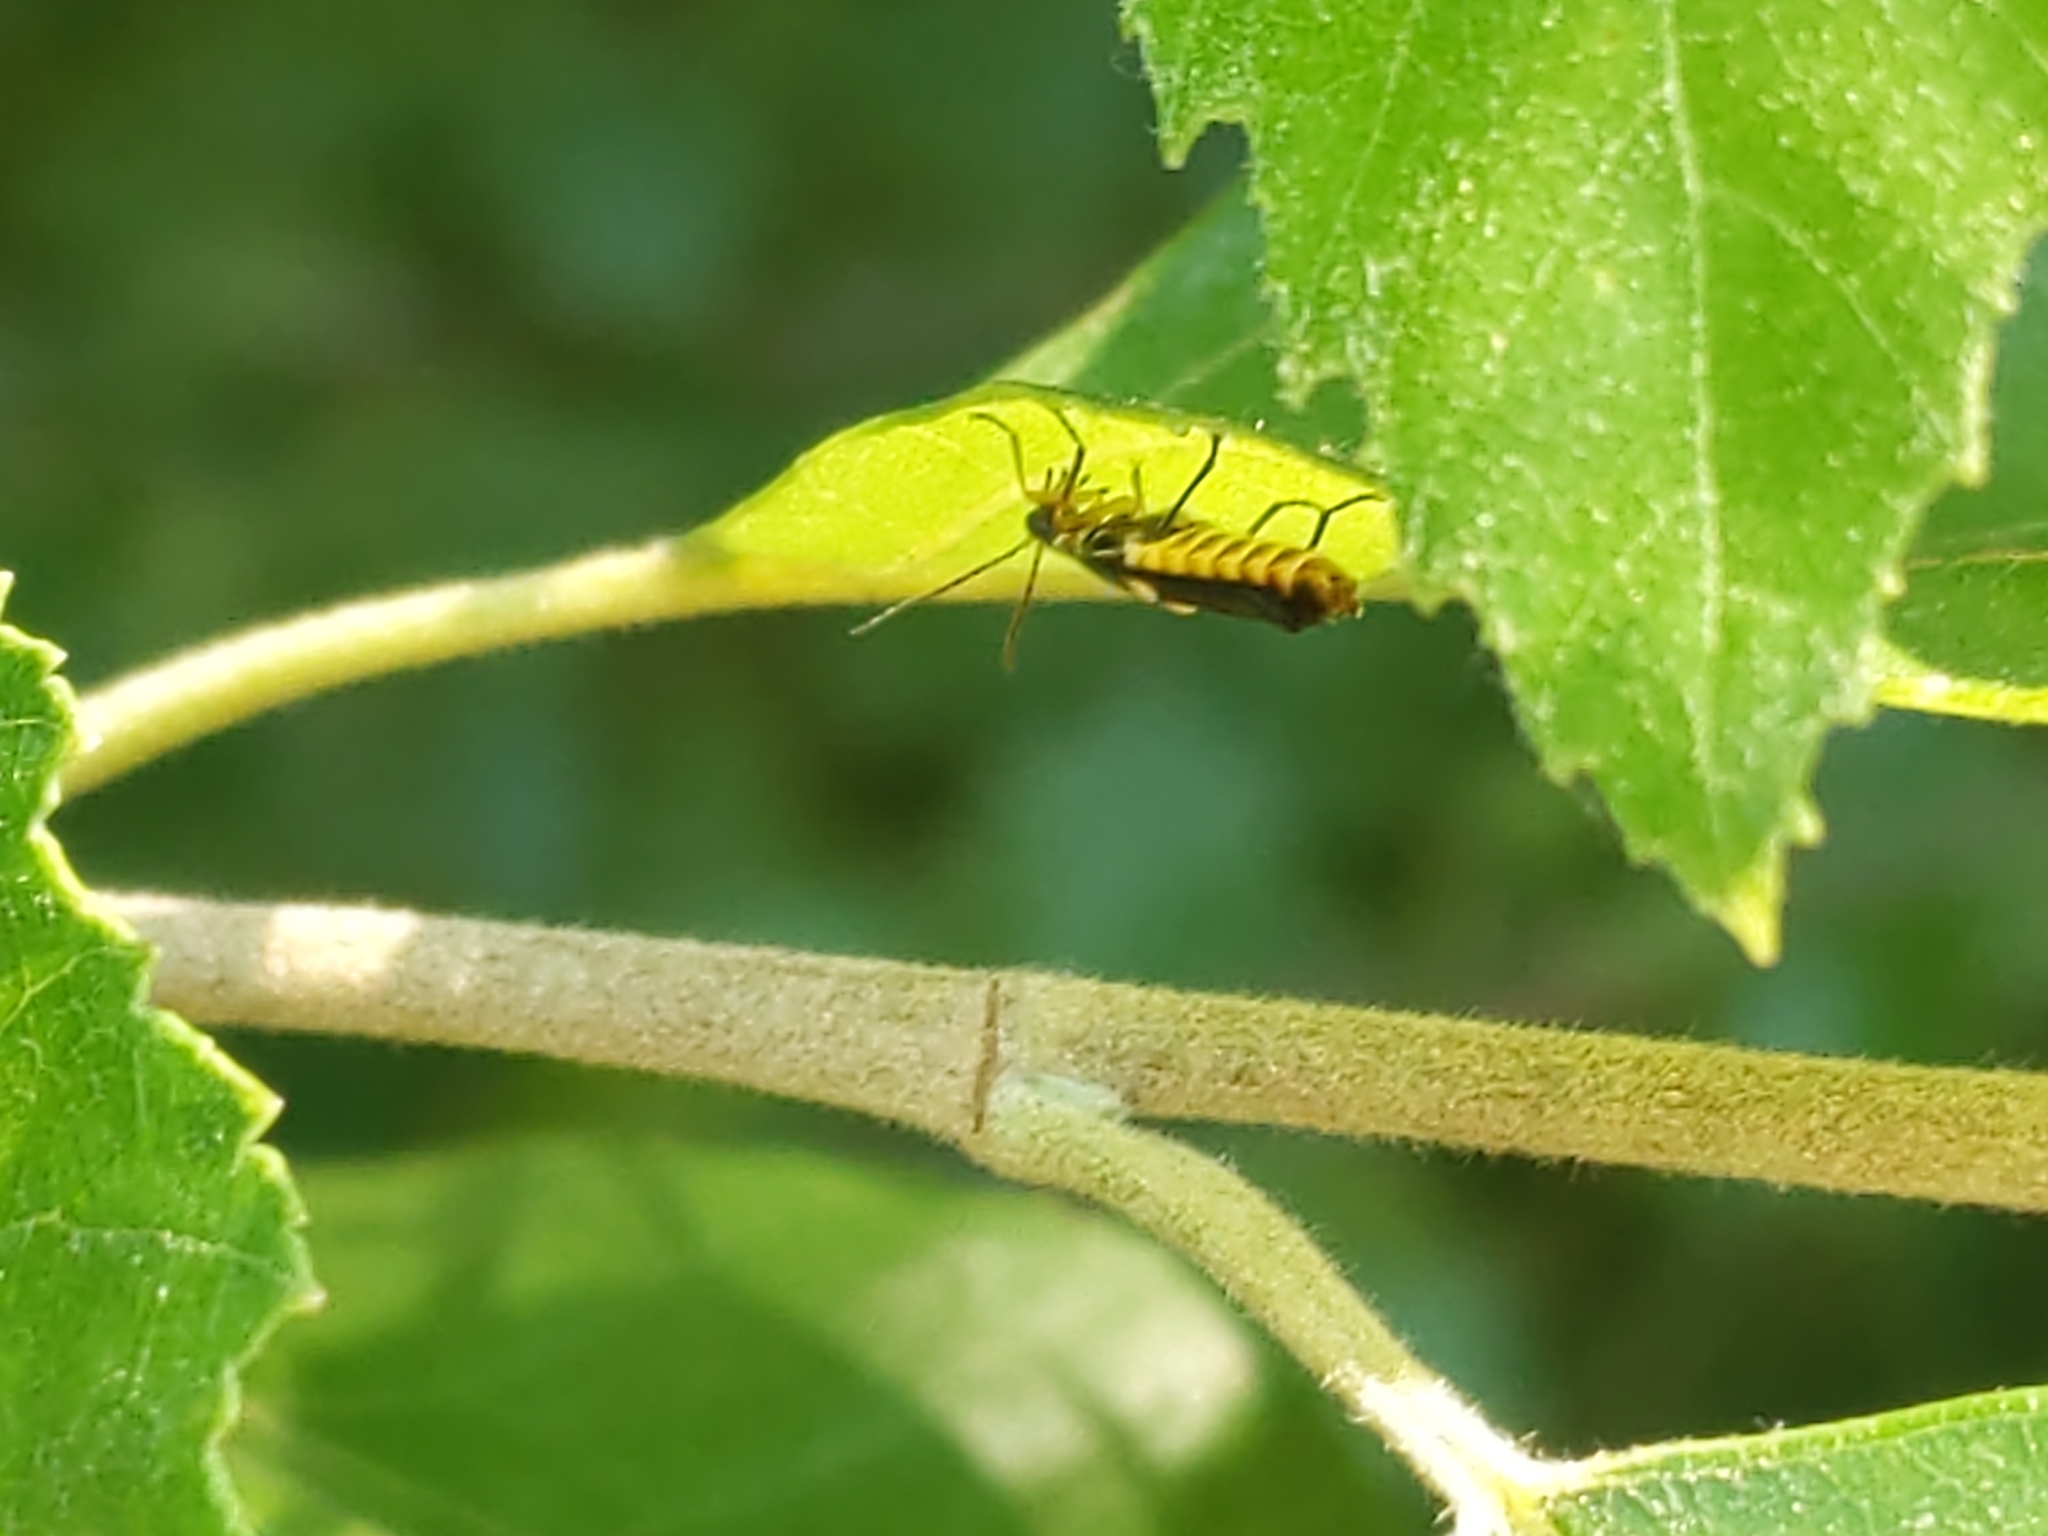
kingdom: Animalia
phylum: Arthropoda
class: Insecta
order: Coleoptera
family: Cantharidae
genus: Trypherus
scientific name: Trypherus
